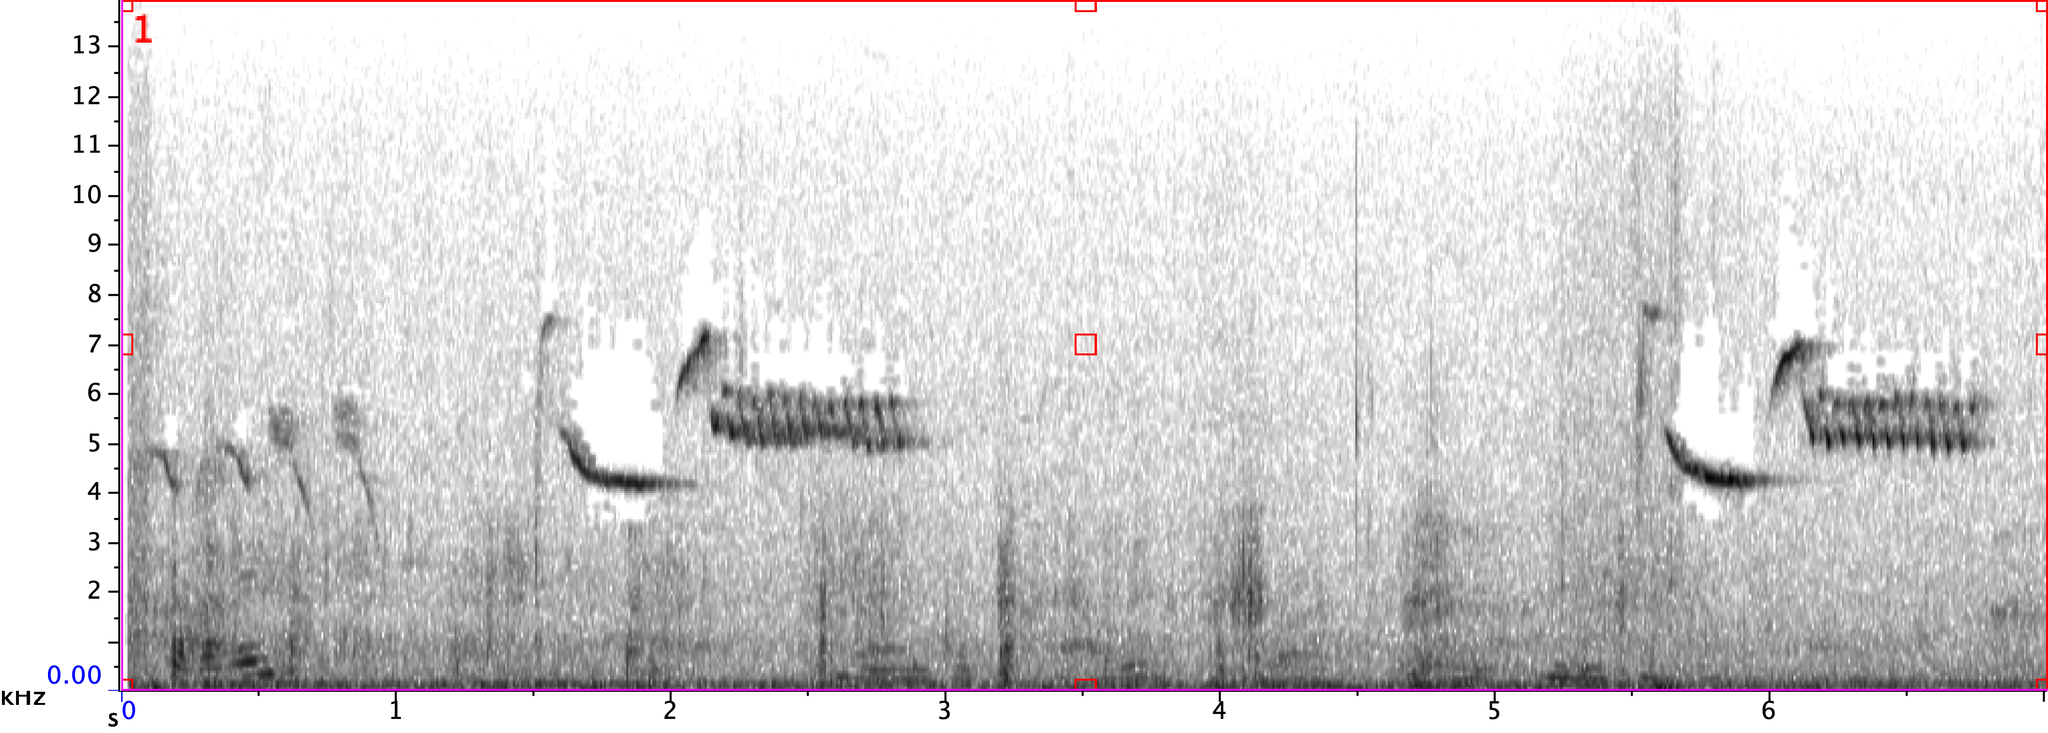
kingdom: Animalia
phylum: Chordata
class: Aves
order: Passeriformes
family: Troglodytidae
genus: Thryomanes
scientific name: Thryomanes bewickii
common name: Bewick's wren
